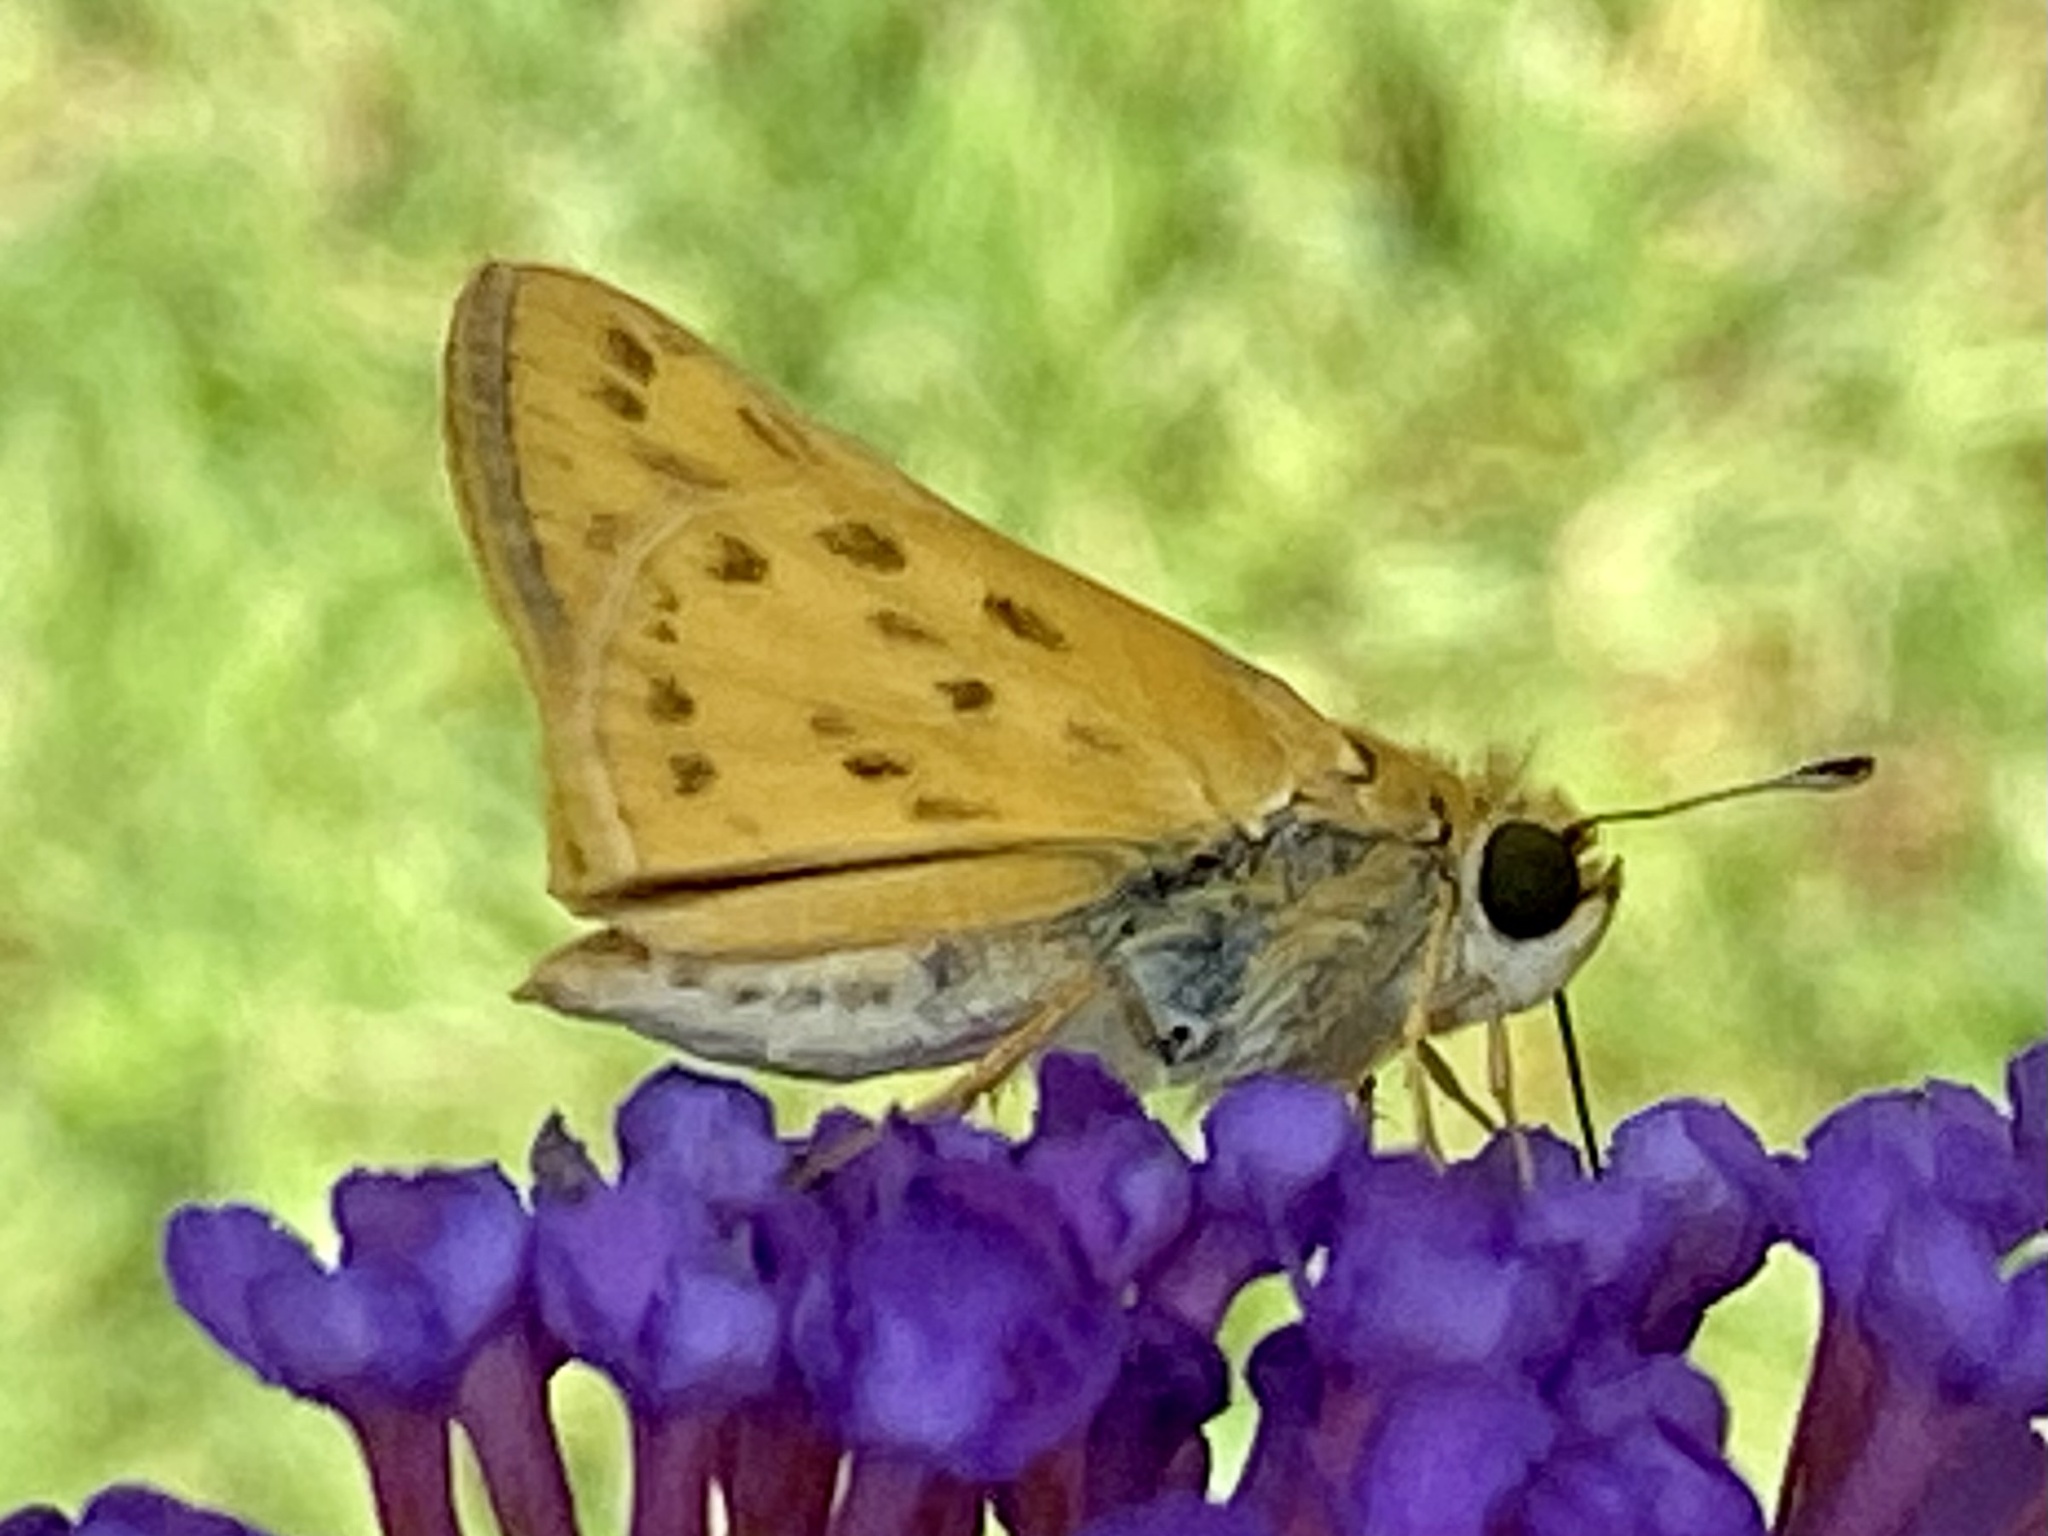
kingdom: Animalia
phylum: Arthropoda
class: Insecta
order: Lepidoptera
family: Hesperiidae
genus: Hylephila
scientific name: Hylephila phyleus
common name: Fiery skipper
